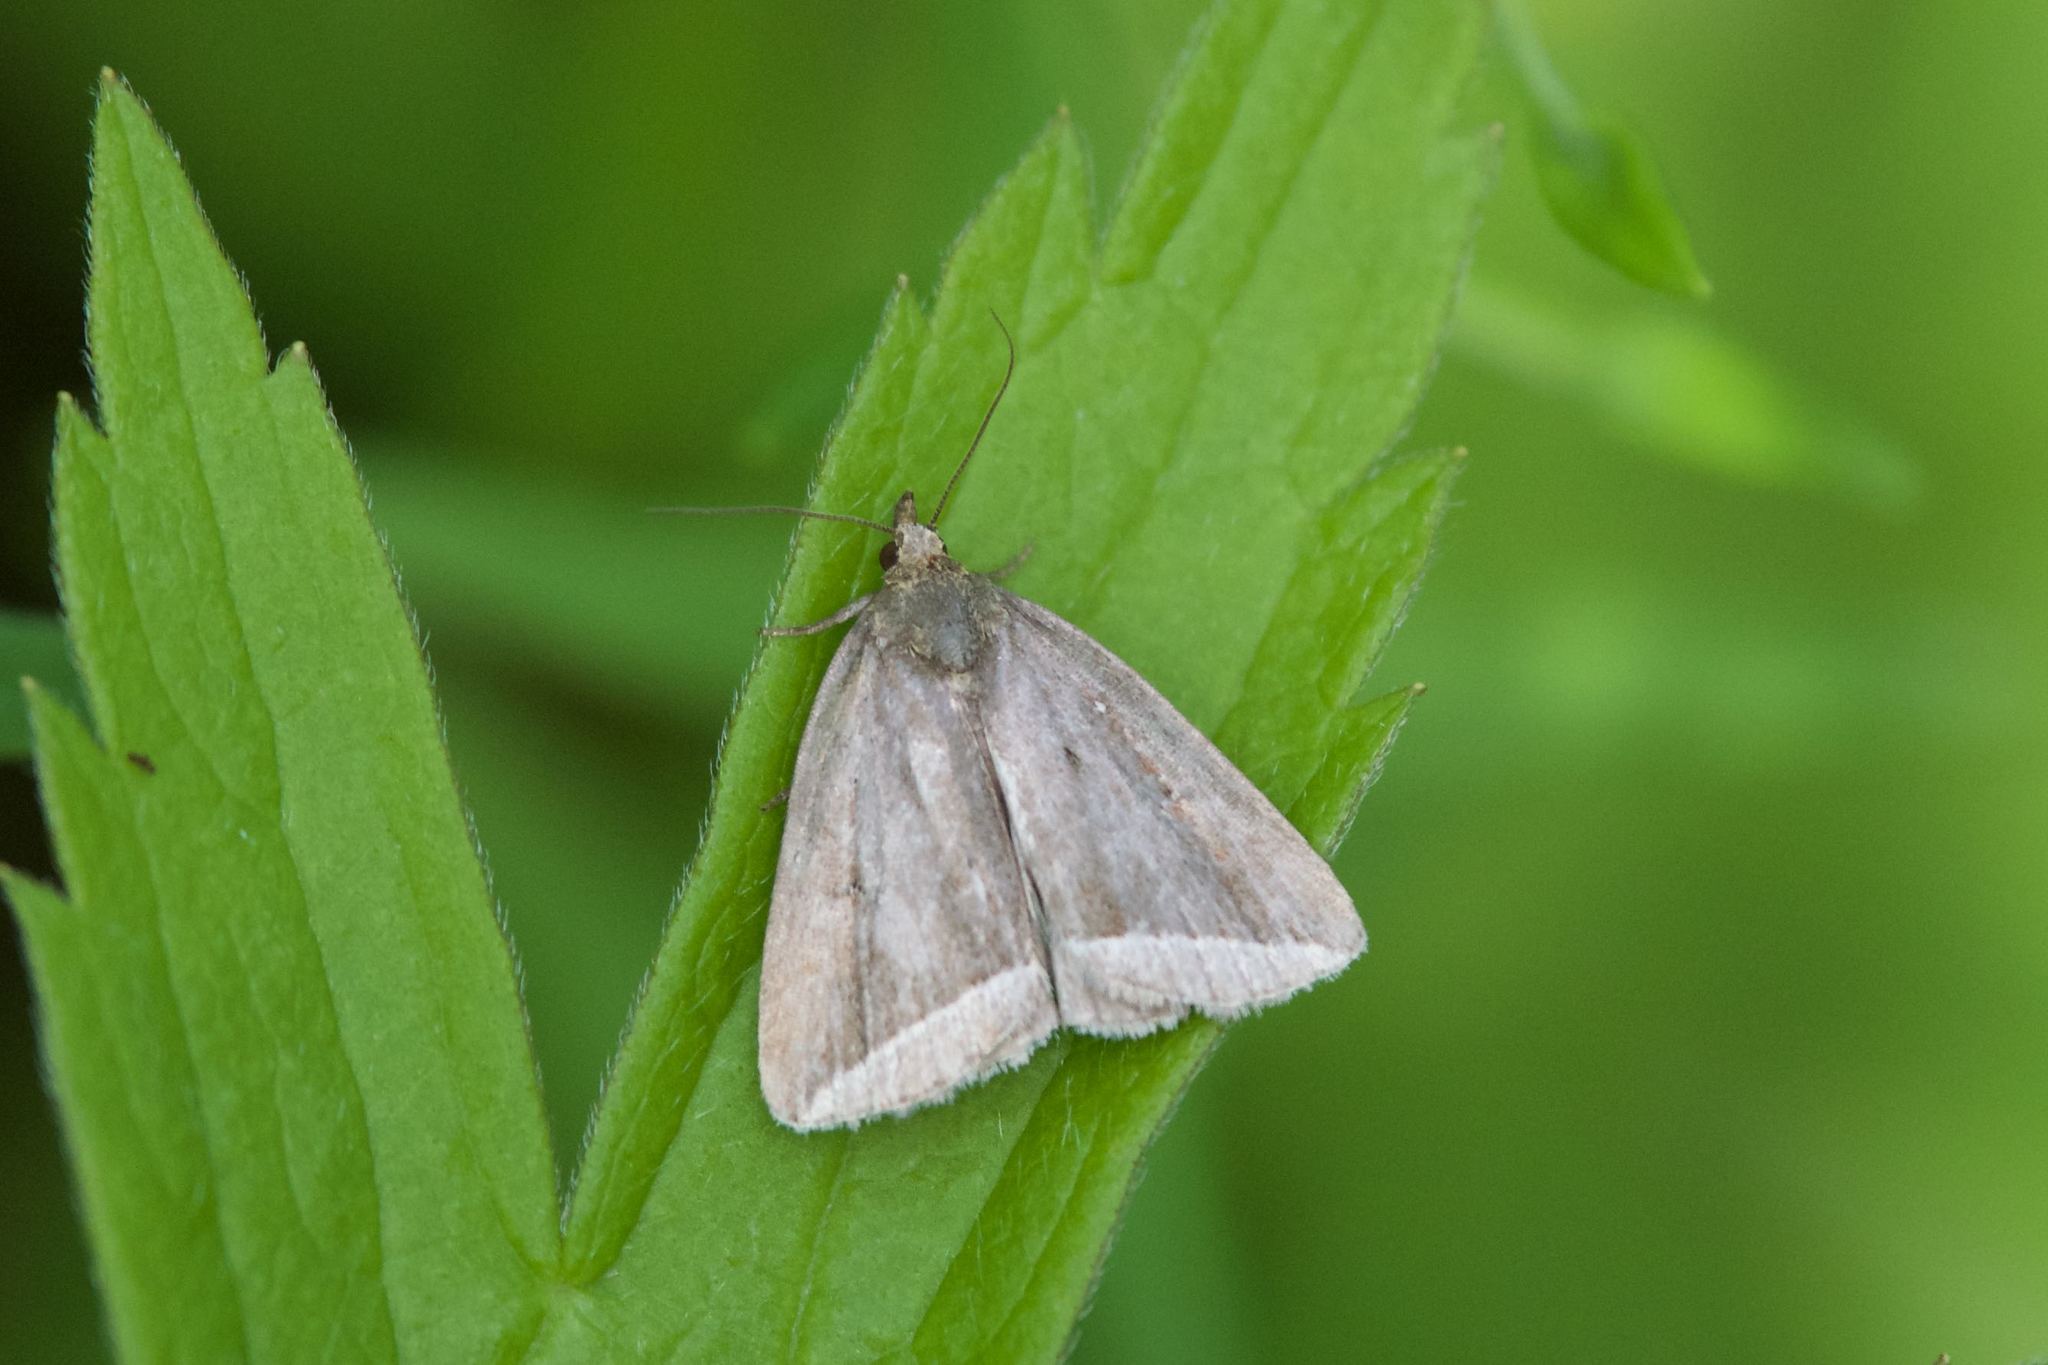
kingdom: Animalia
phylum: Arthropoda
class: Insecta
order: Lepidoptera
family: Erebidae
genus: Capis
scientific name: Capis curvata
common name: Curved halter moth
